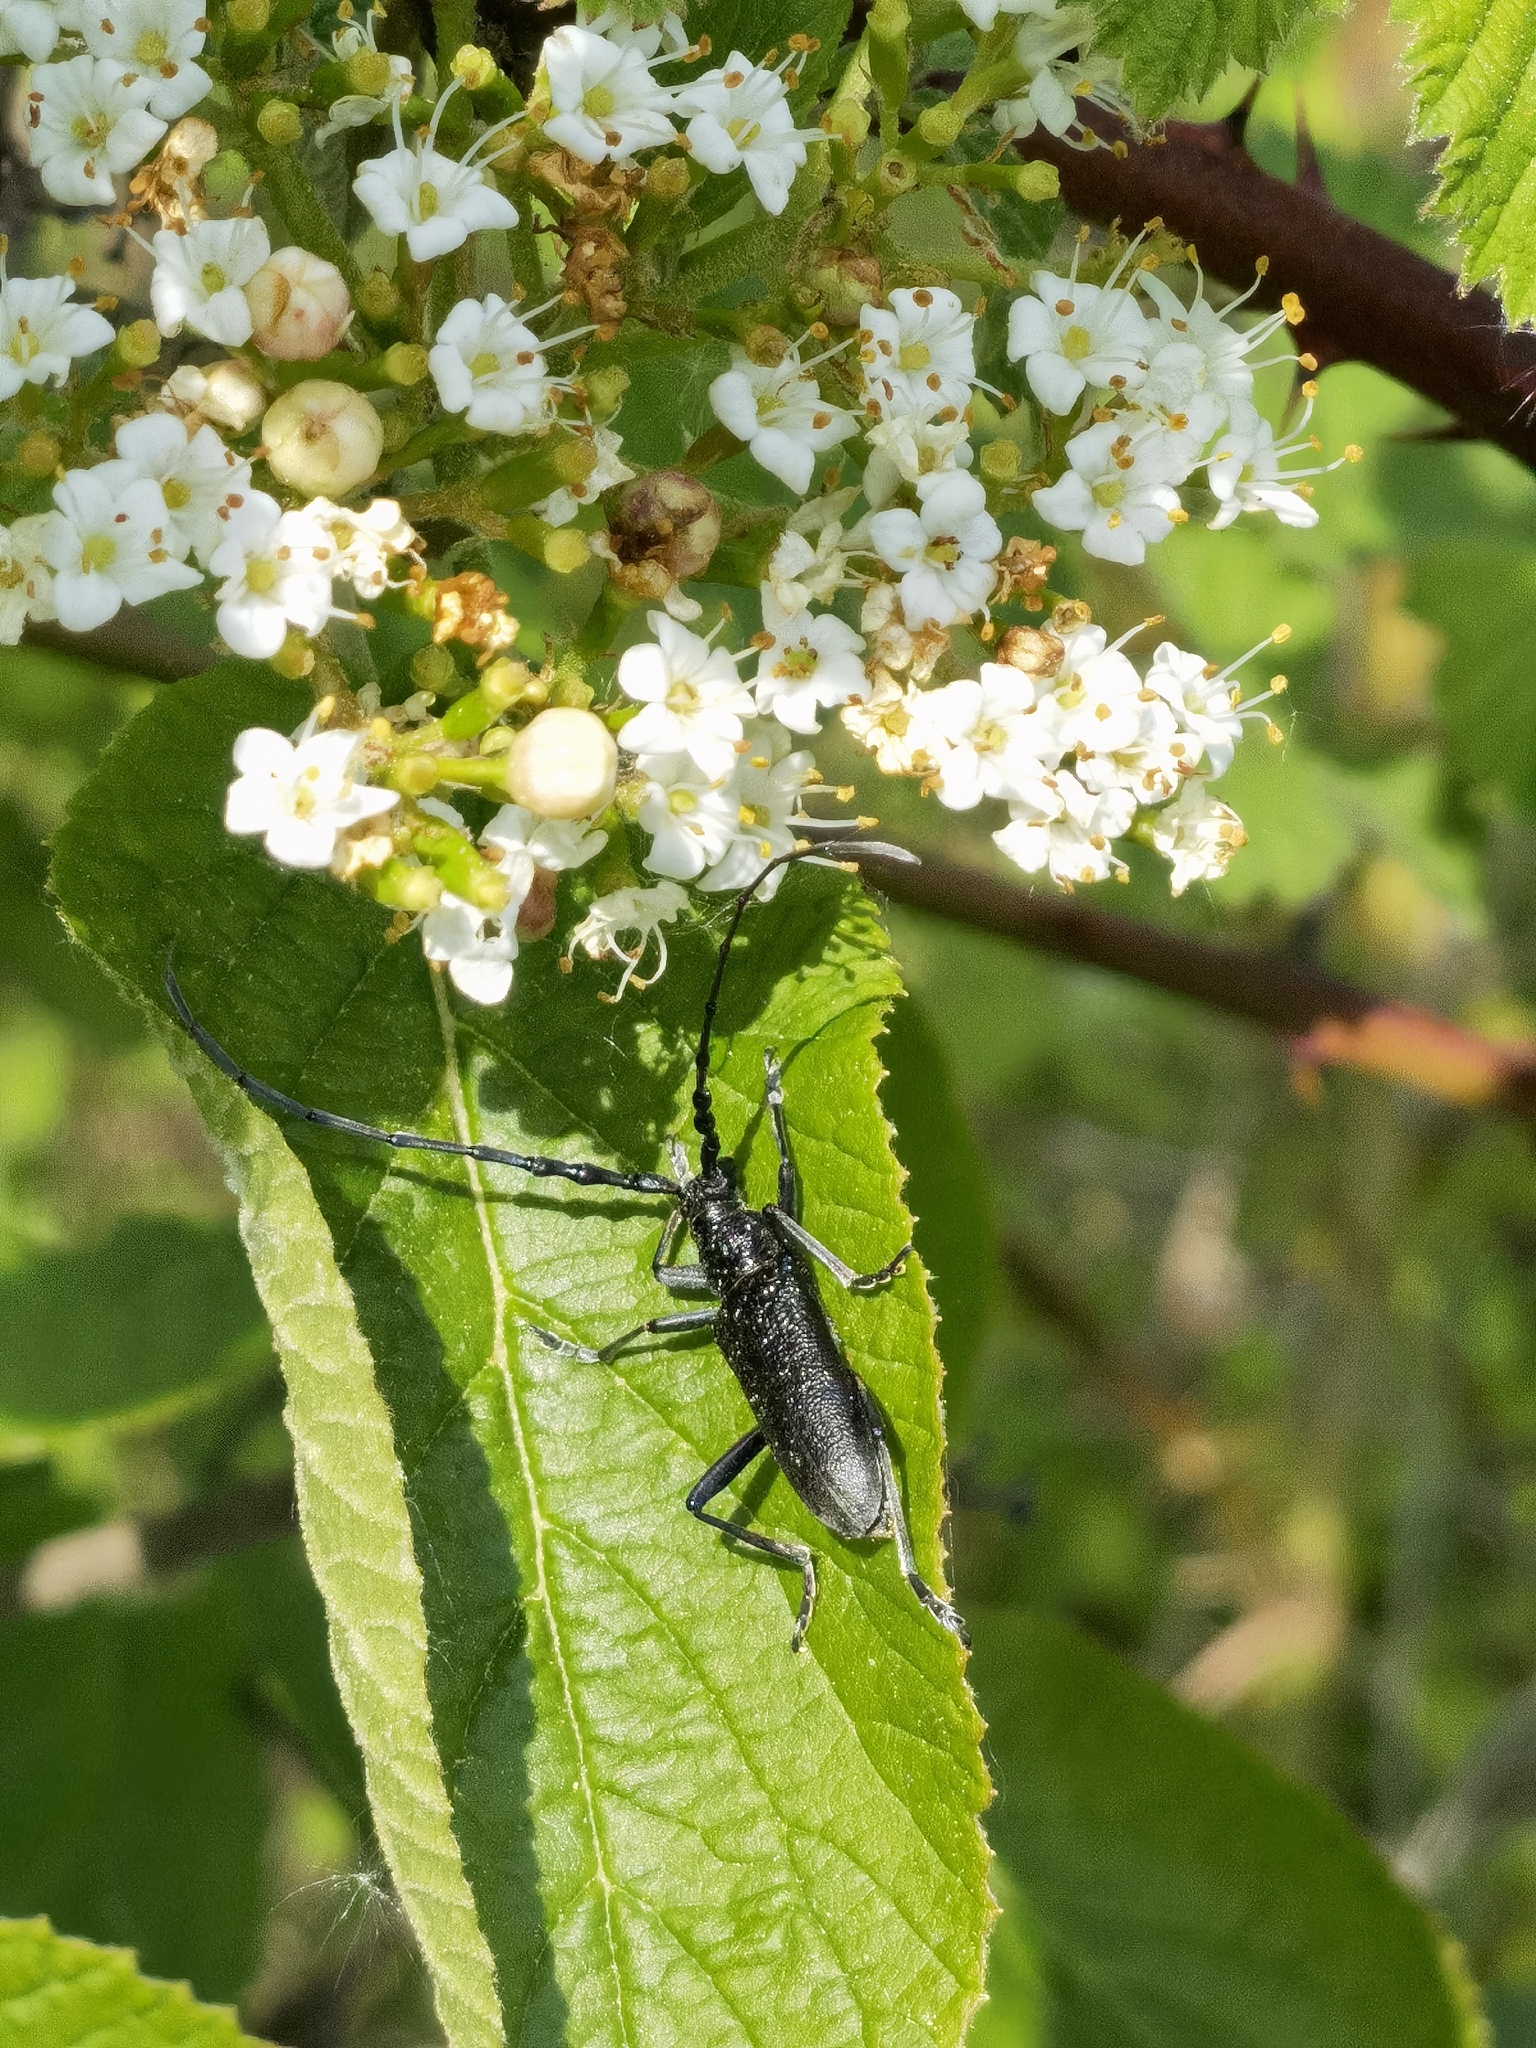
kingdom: Animalia
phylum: Arthropoda
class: Insecta
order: Coleoptera
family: Cerambycidae
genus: Cerambyx
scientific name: Cerambyx scopolii
